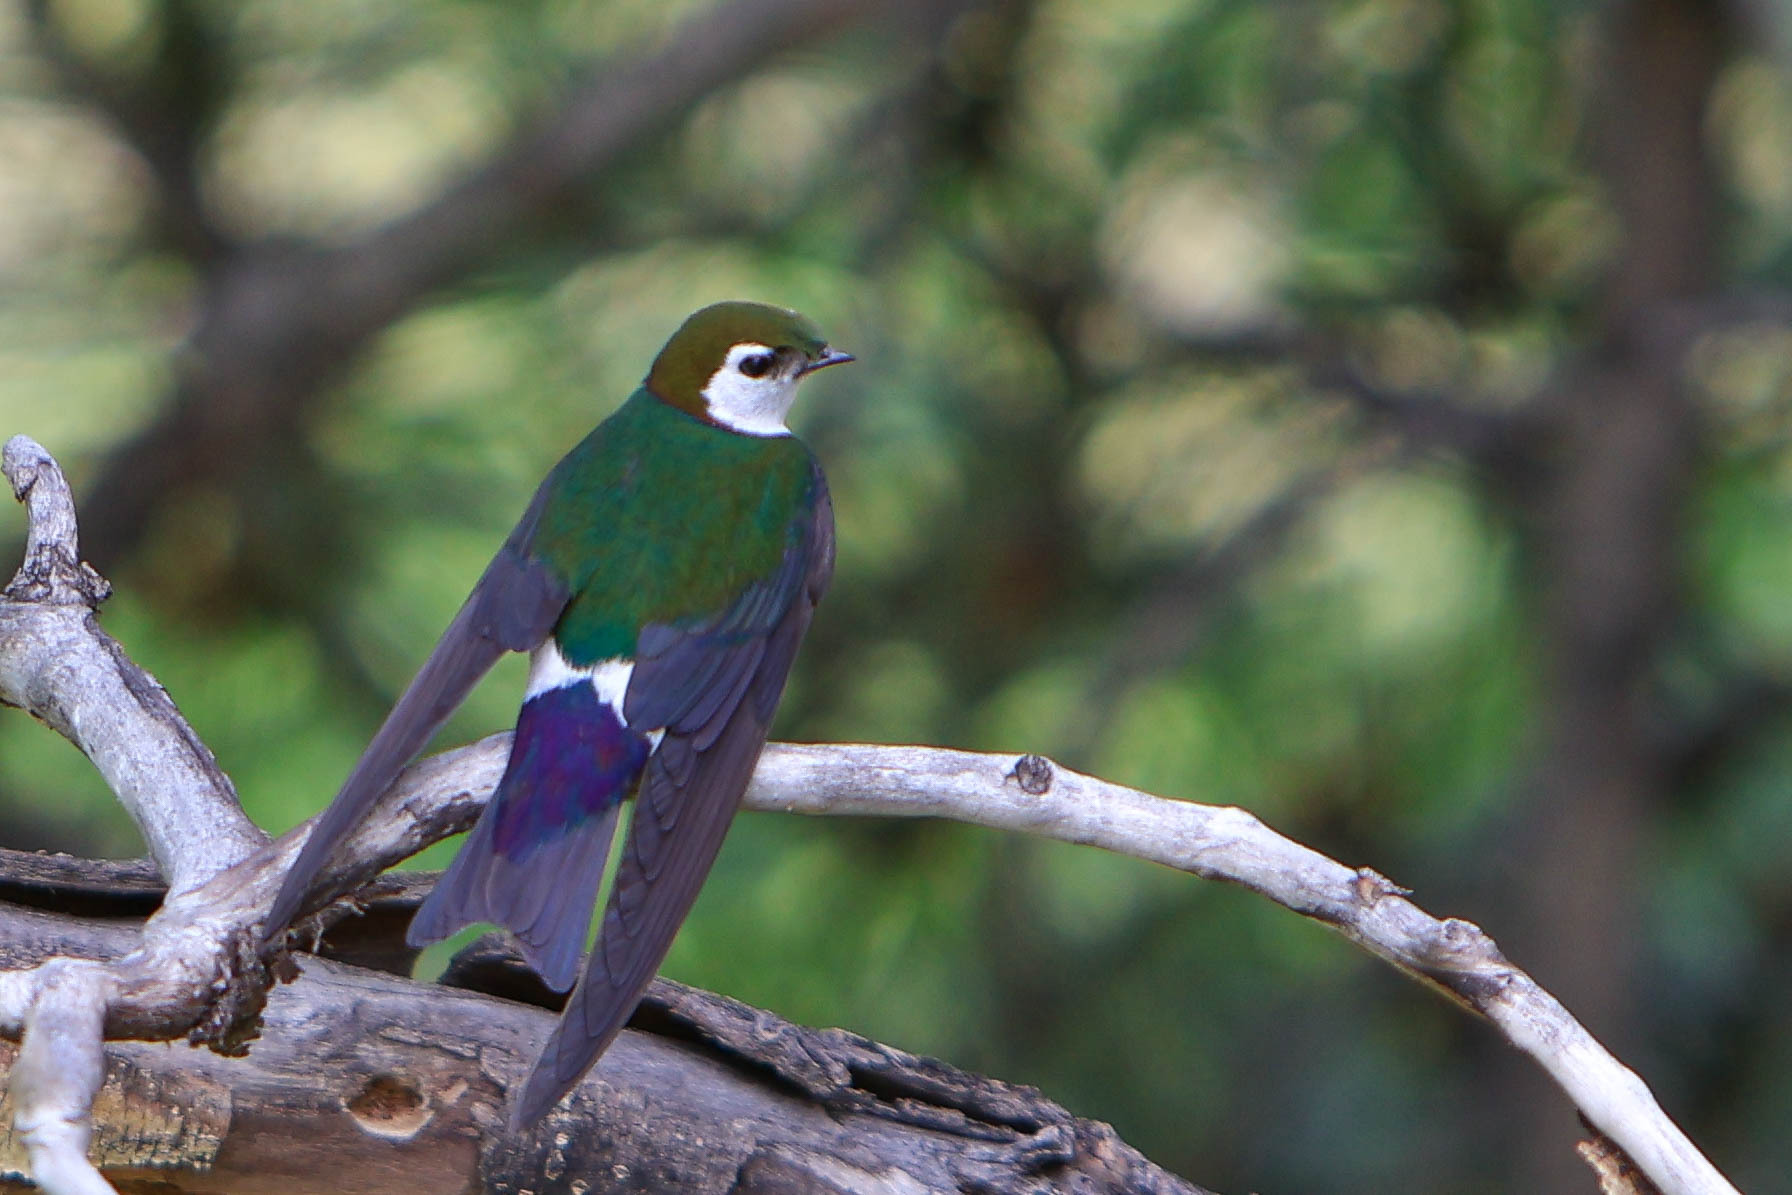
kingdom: Animalia
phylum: Chordata
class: Aves
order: Passeriformes
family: Hirundinidae
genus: Tachycineta
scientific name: Tachycineta thalassina
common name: Violet-green swallow
